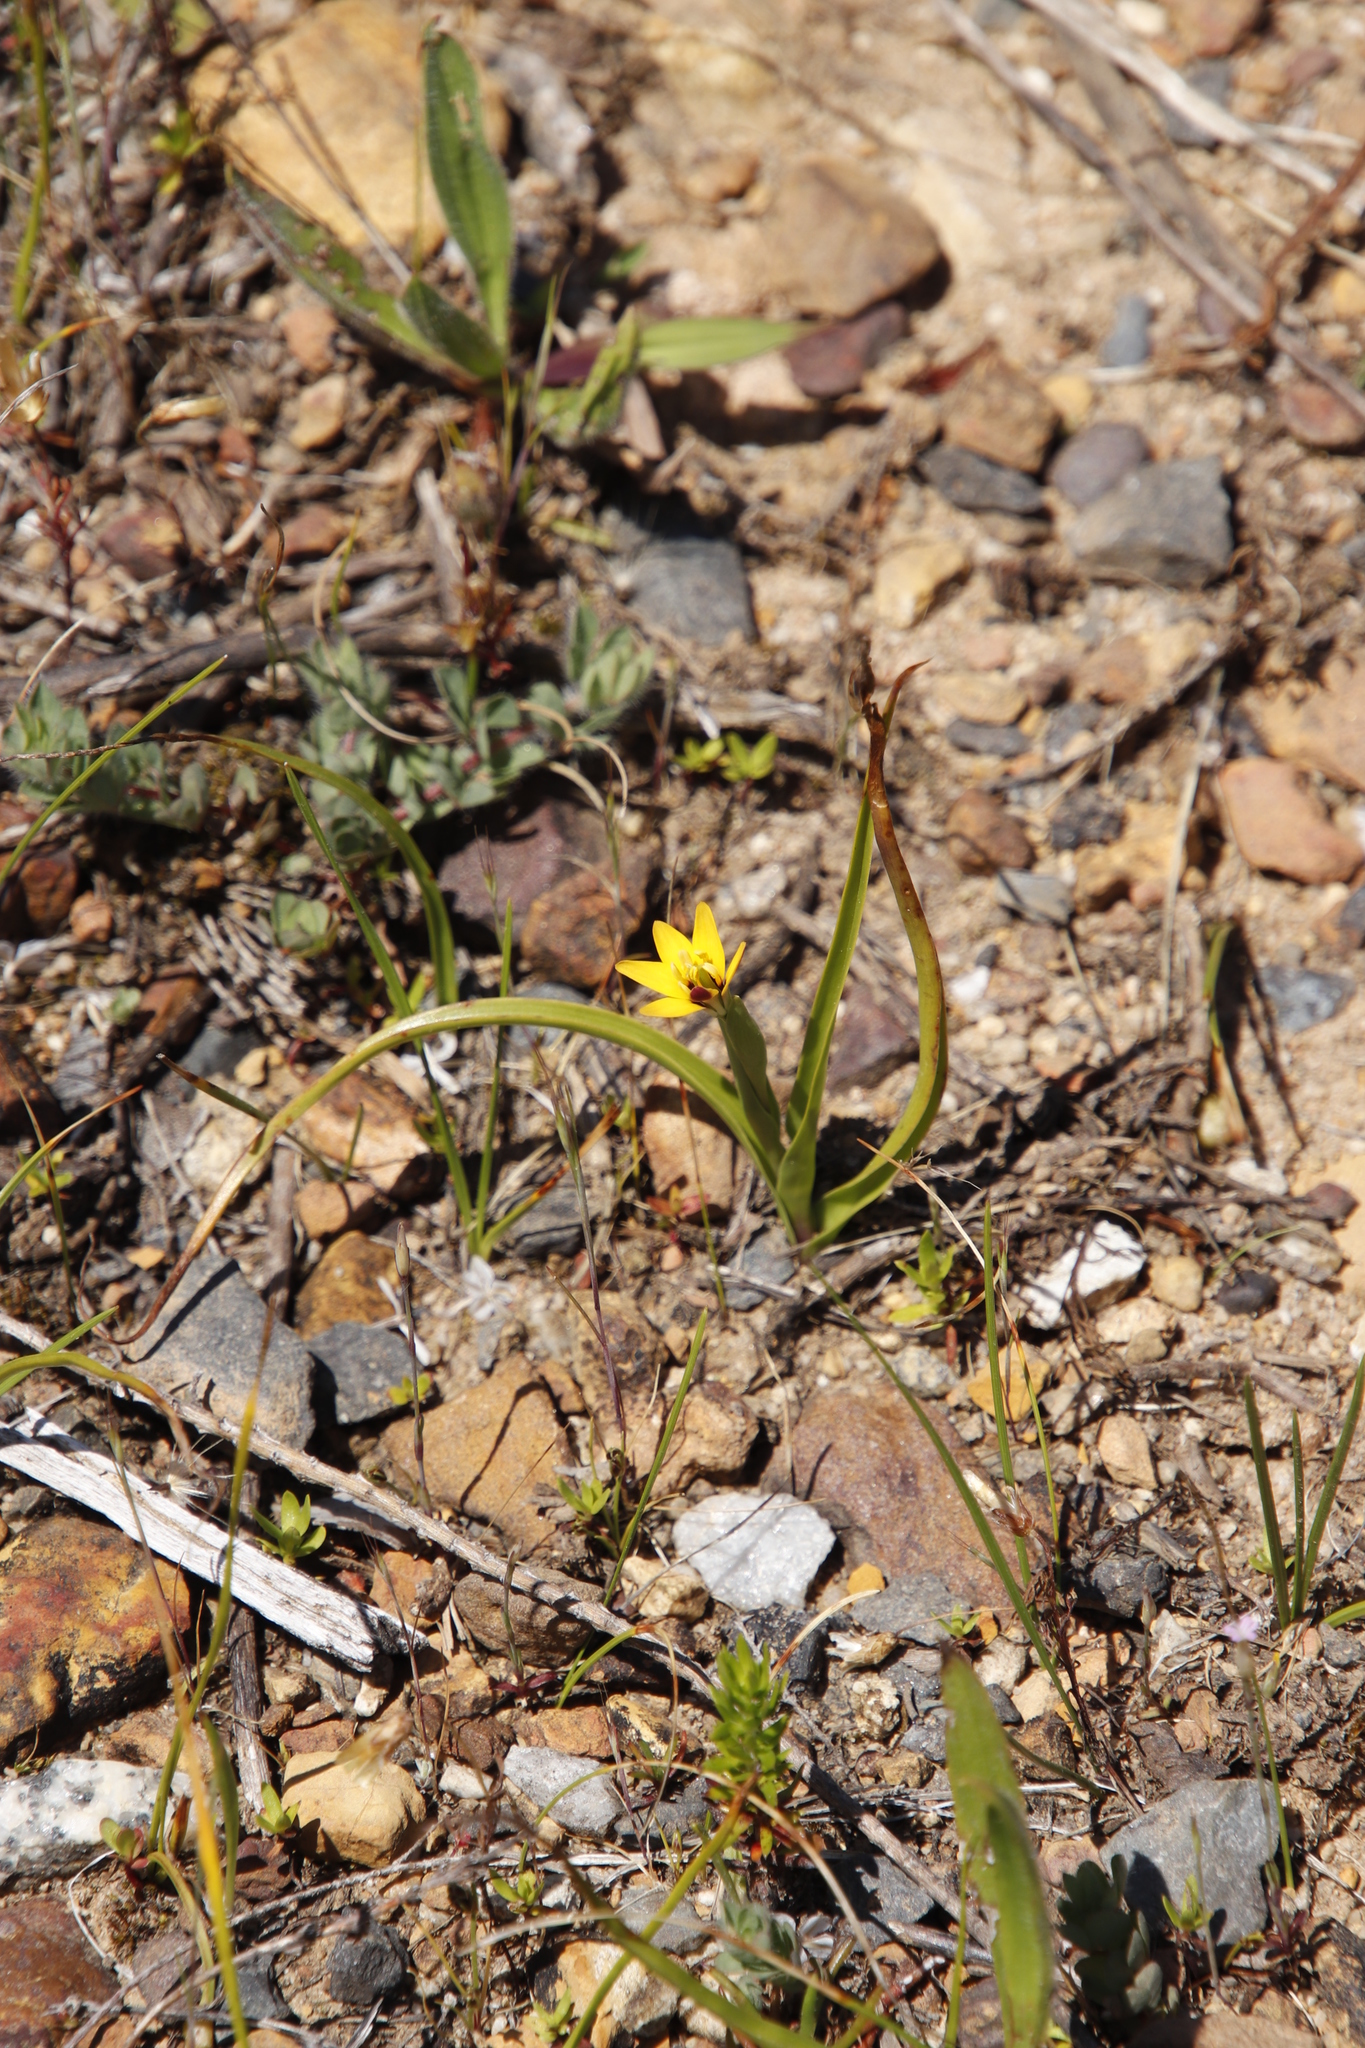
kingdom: Plantae
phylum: Tracheophyta
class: Liliopsida
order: Liliales
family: Colchicaceae
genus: Baeometra
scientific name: Baeometra uniflora
